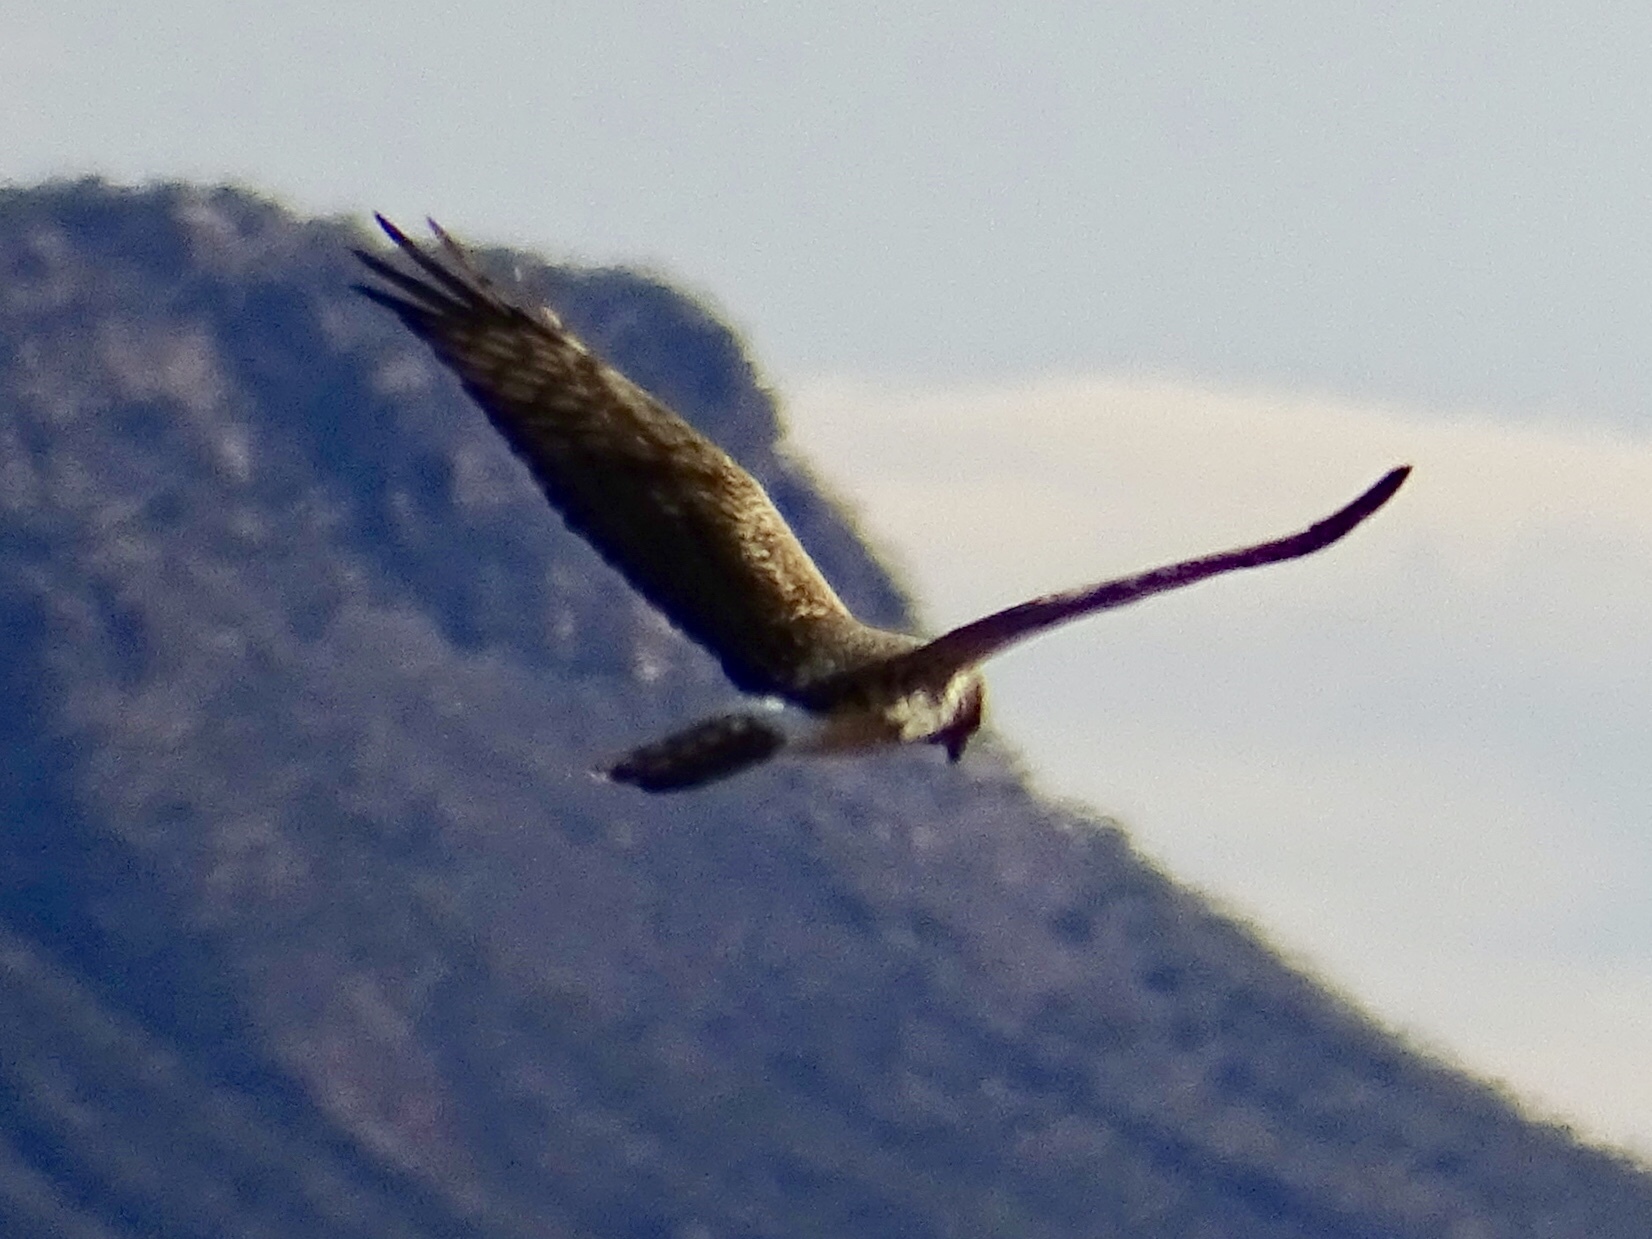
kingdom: Animalia
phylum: Chordata
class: Aves
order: Accipitriformes
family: Accipitridae
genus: Circus
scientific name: Circus cyaneus
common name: Hen harrier
